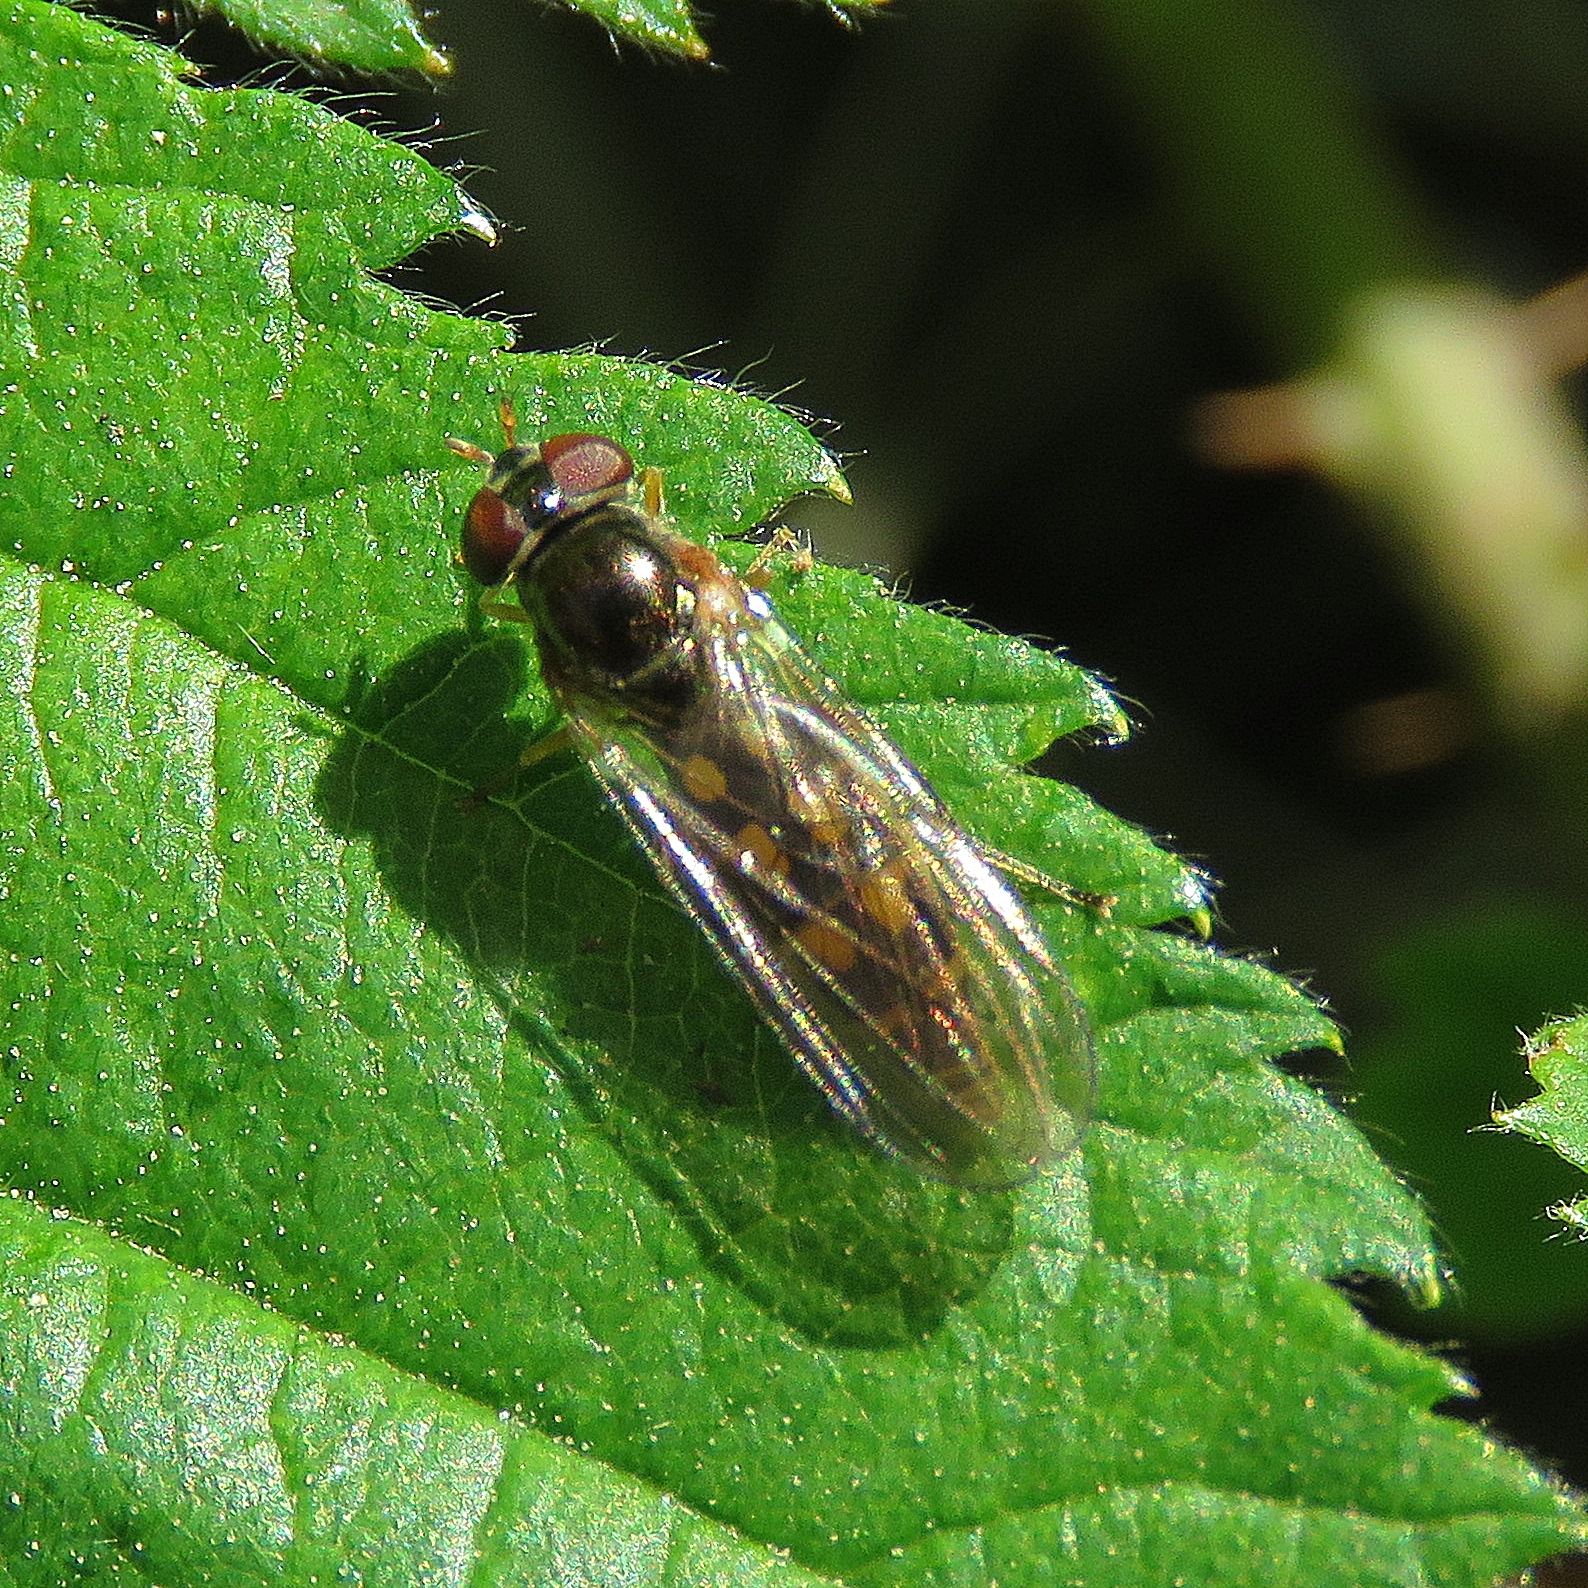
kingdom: Animalia
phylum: Arthropoda
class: Insecta
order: Diptera
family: Syrphidae
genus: Melanostoma
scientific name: Melanostoma scalare
